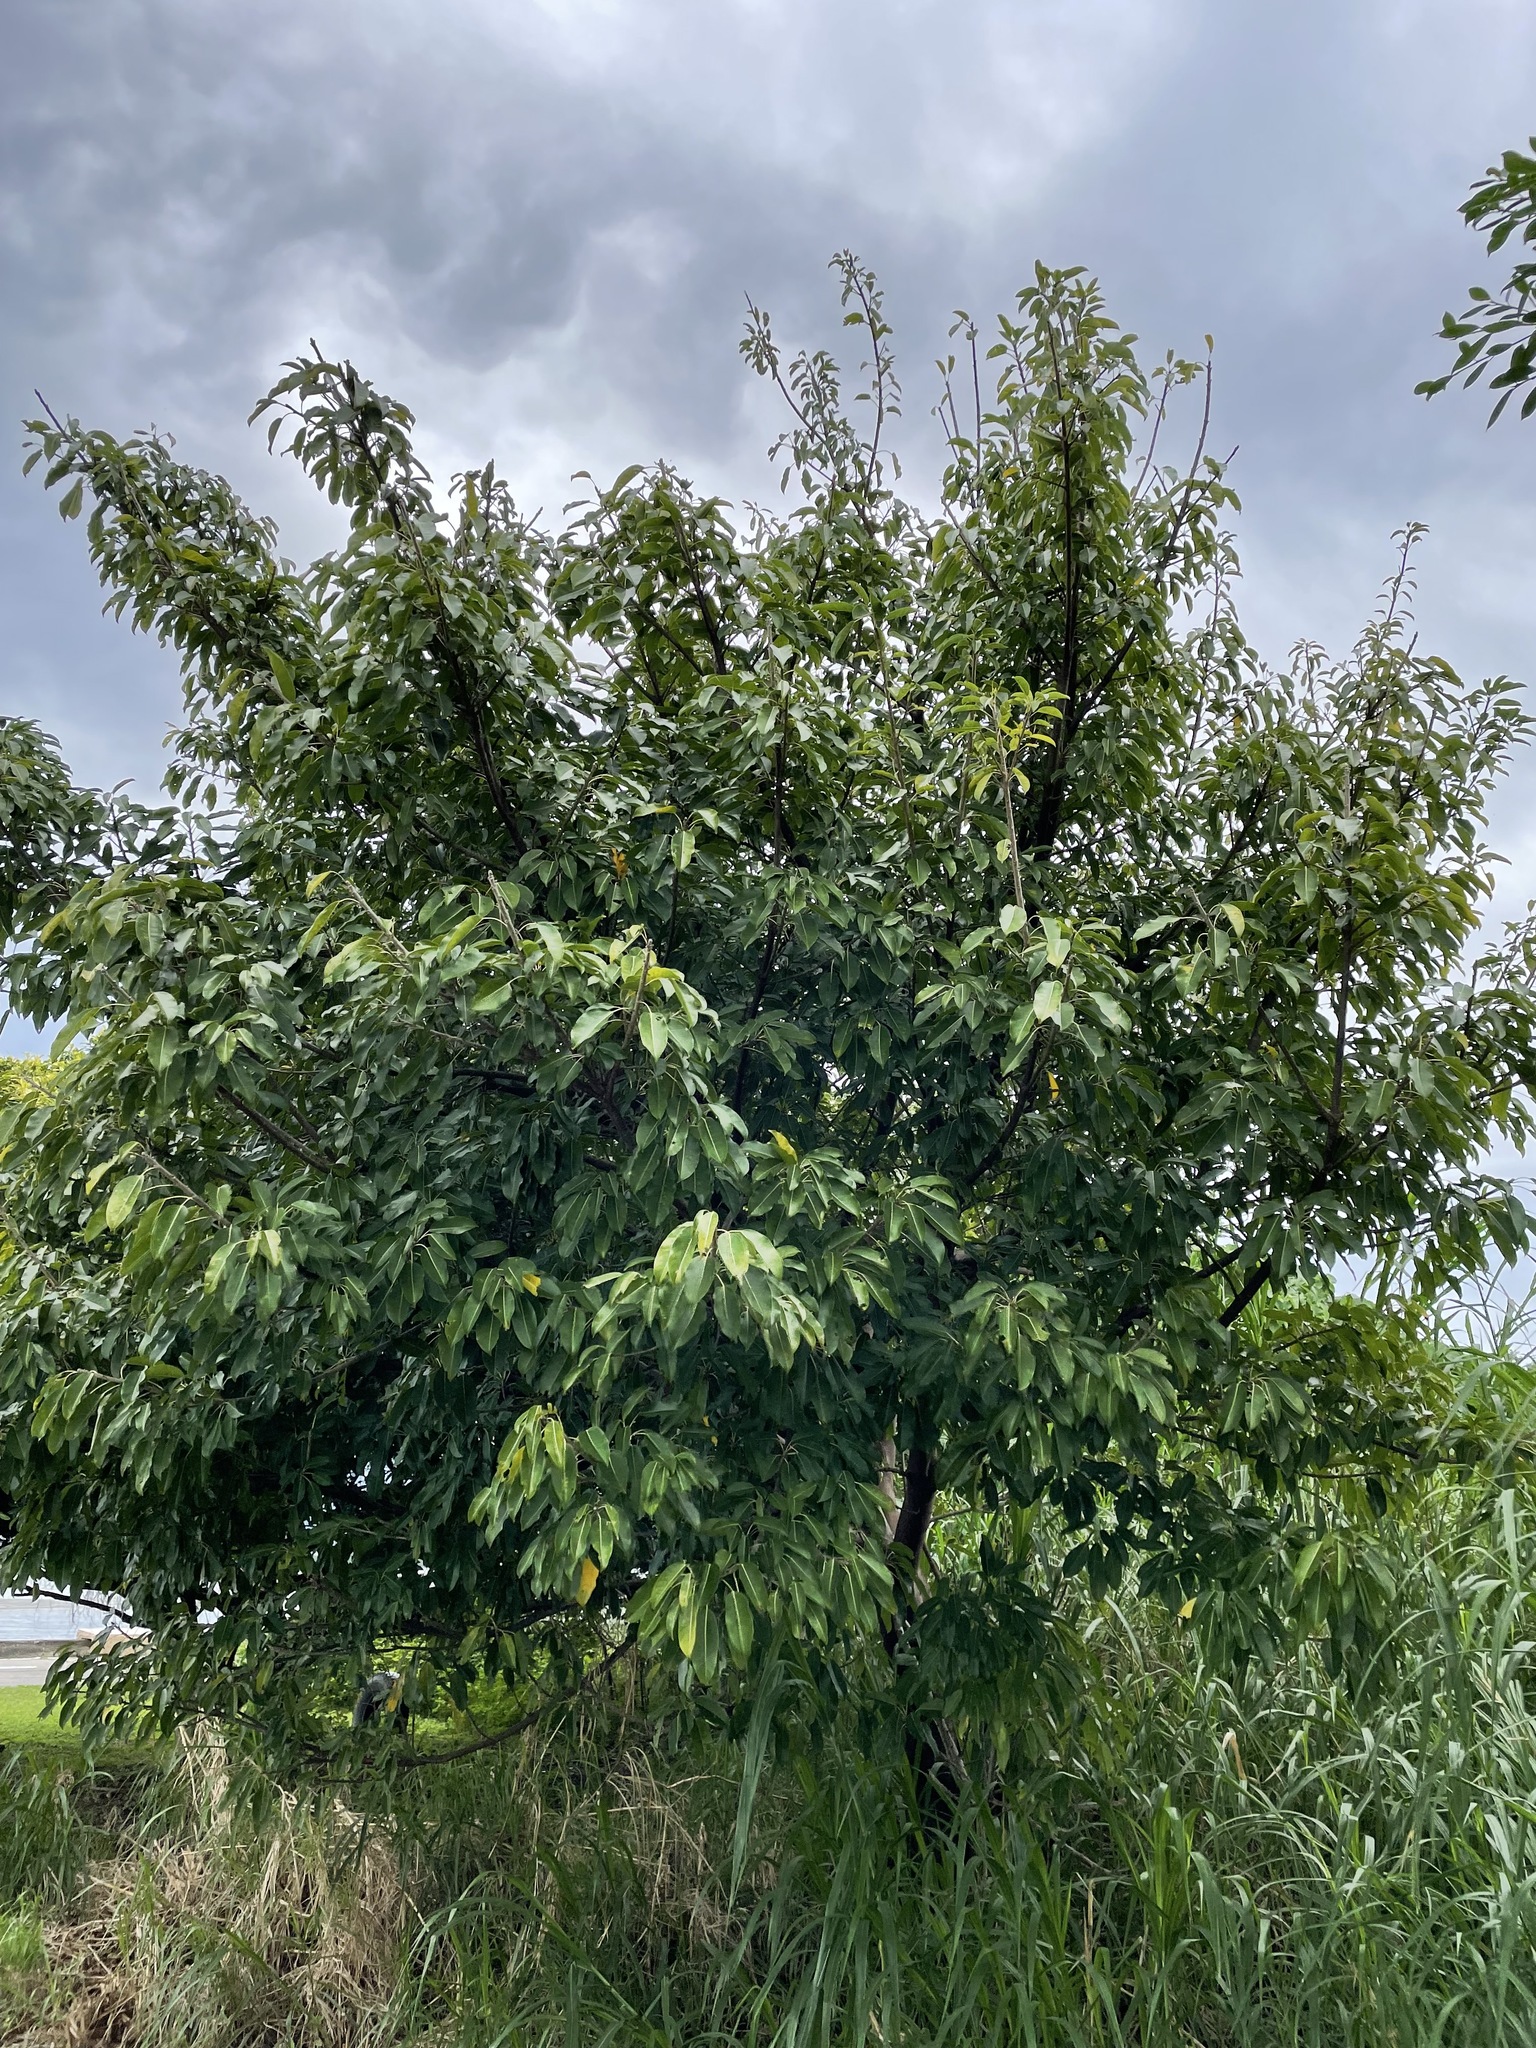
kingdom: Plantae
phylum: Tracheophyta
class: Magnoliopsida
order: Rosales
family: Moraceae
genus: Ficus
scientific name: Ficus subpisocarpa
